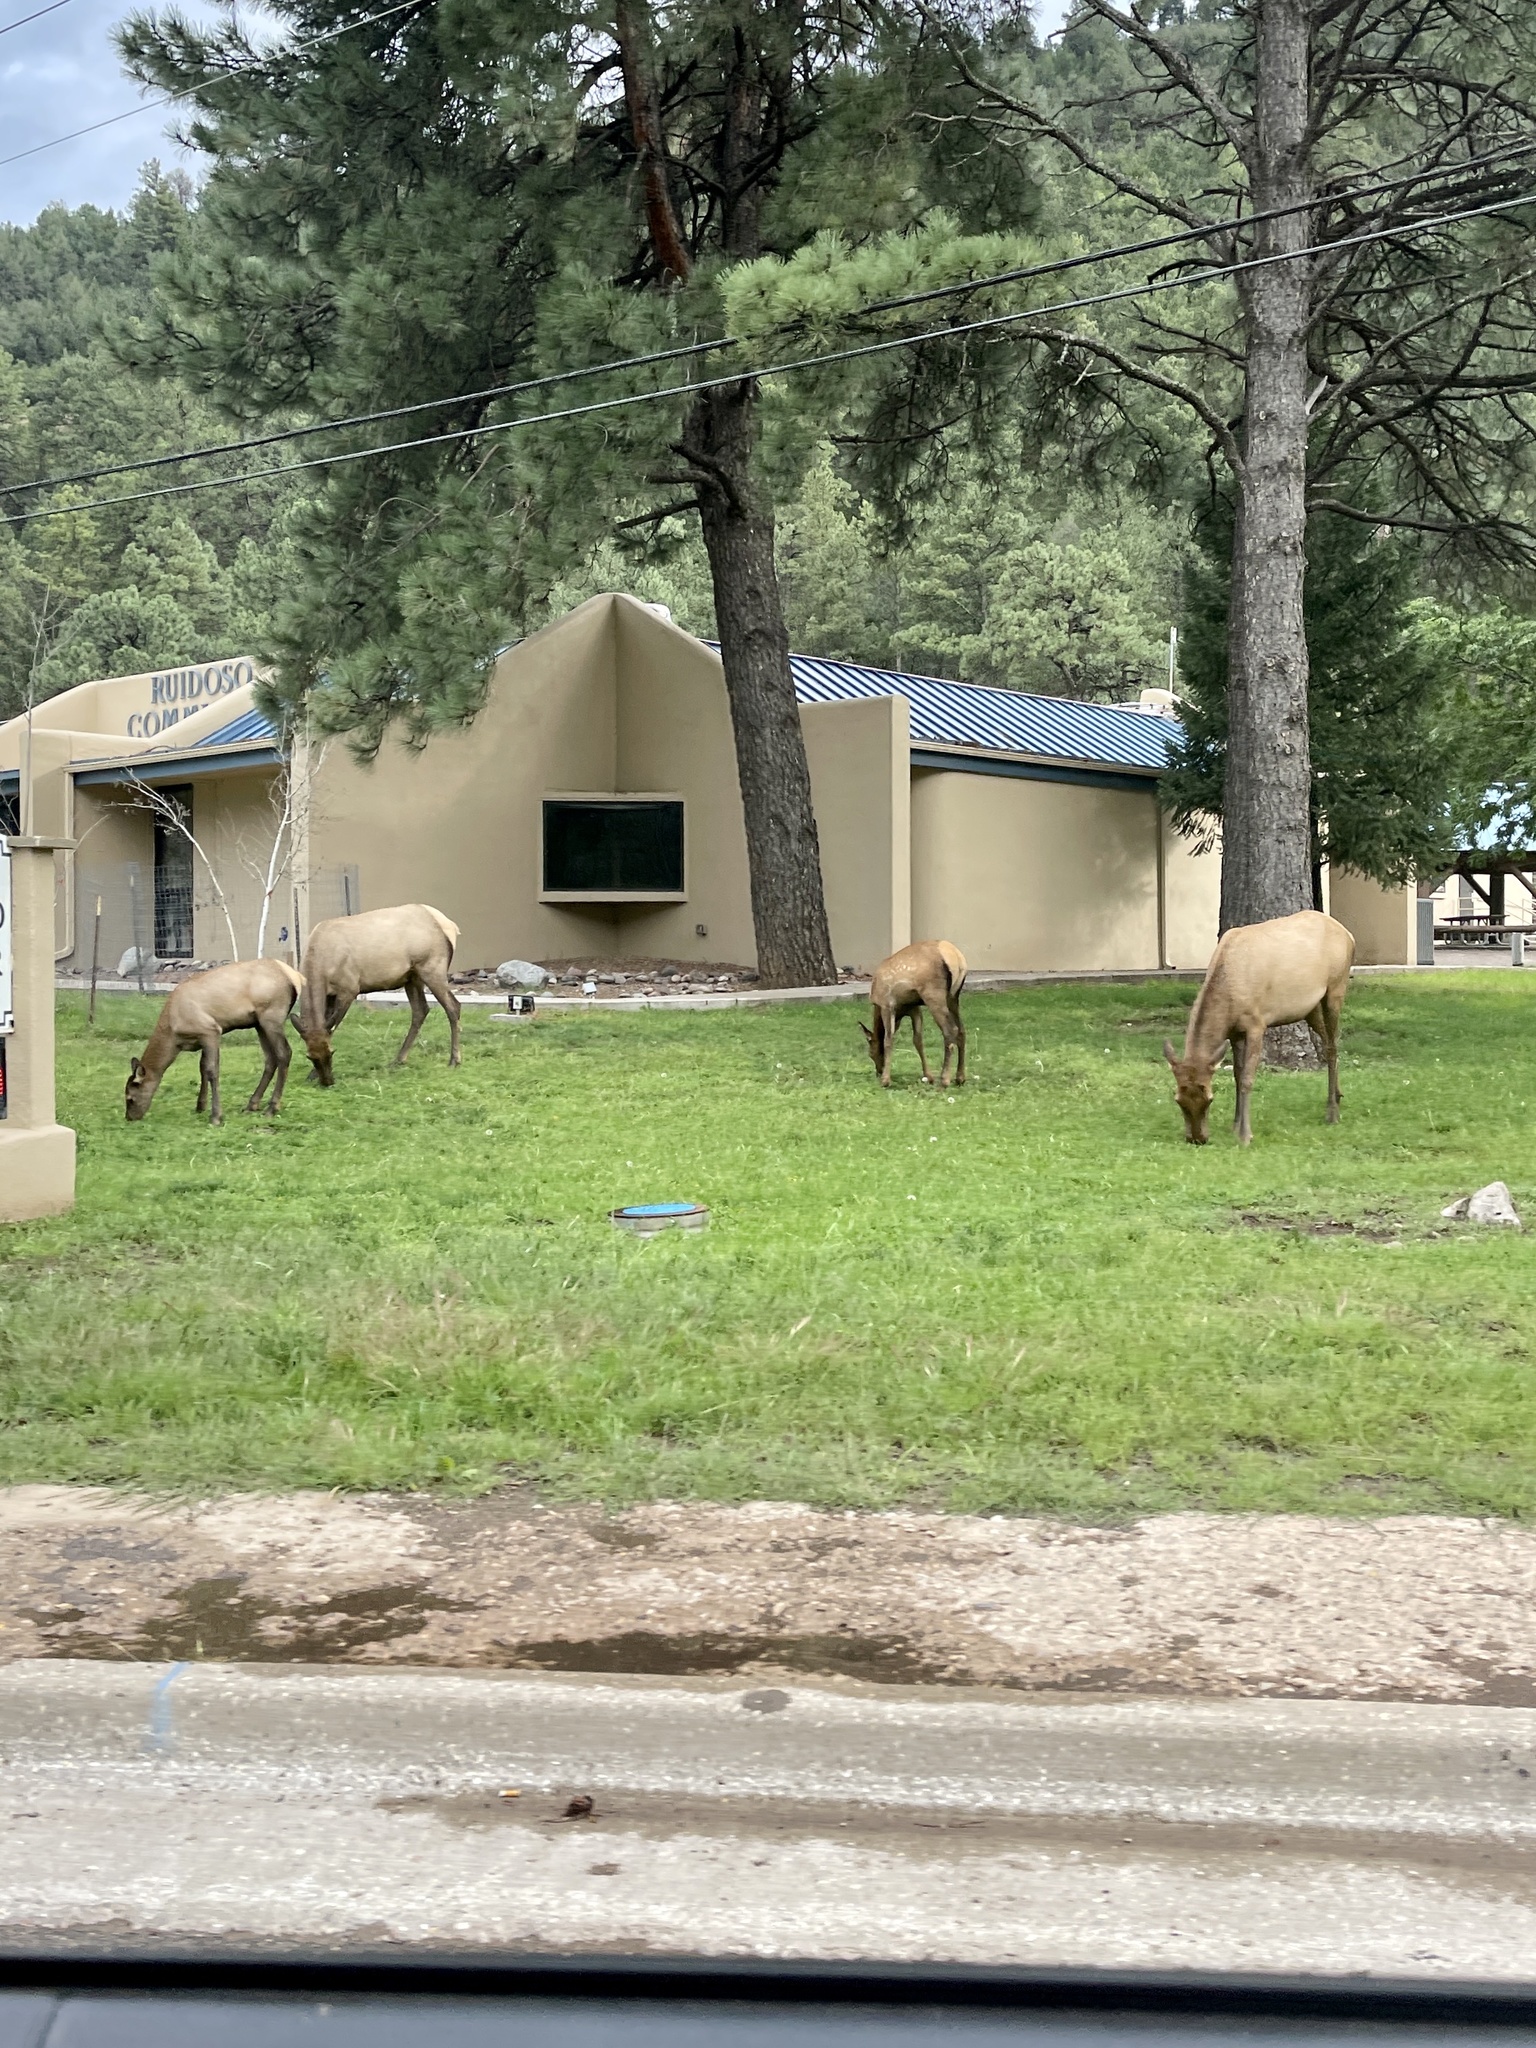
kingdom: Animalia
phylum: Chordata
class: Mammalia
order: Artiodactyla
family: Cervidae
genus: Cervus
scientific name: Cervus elaphus
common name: Red deer
